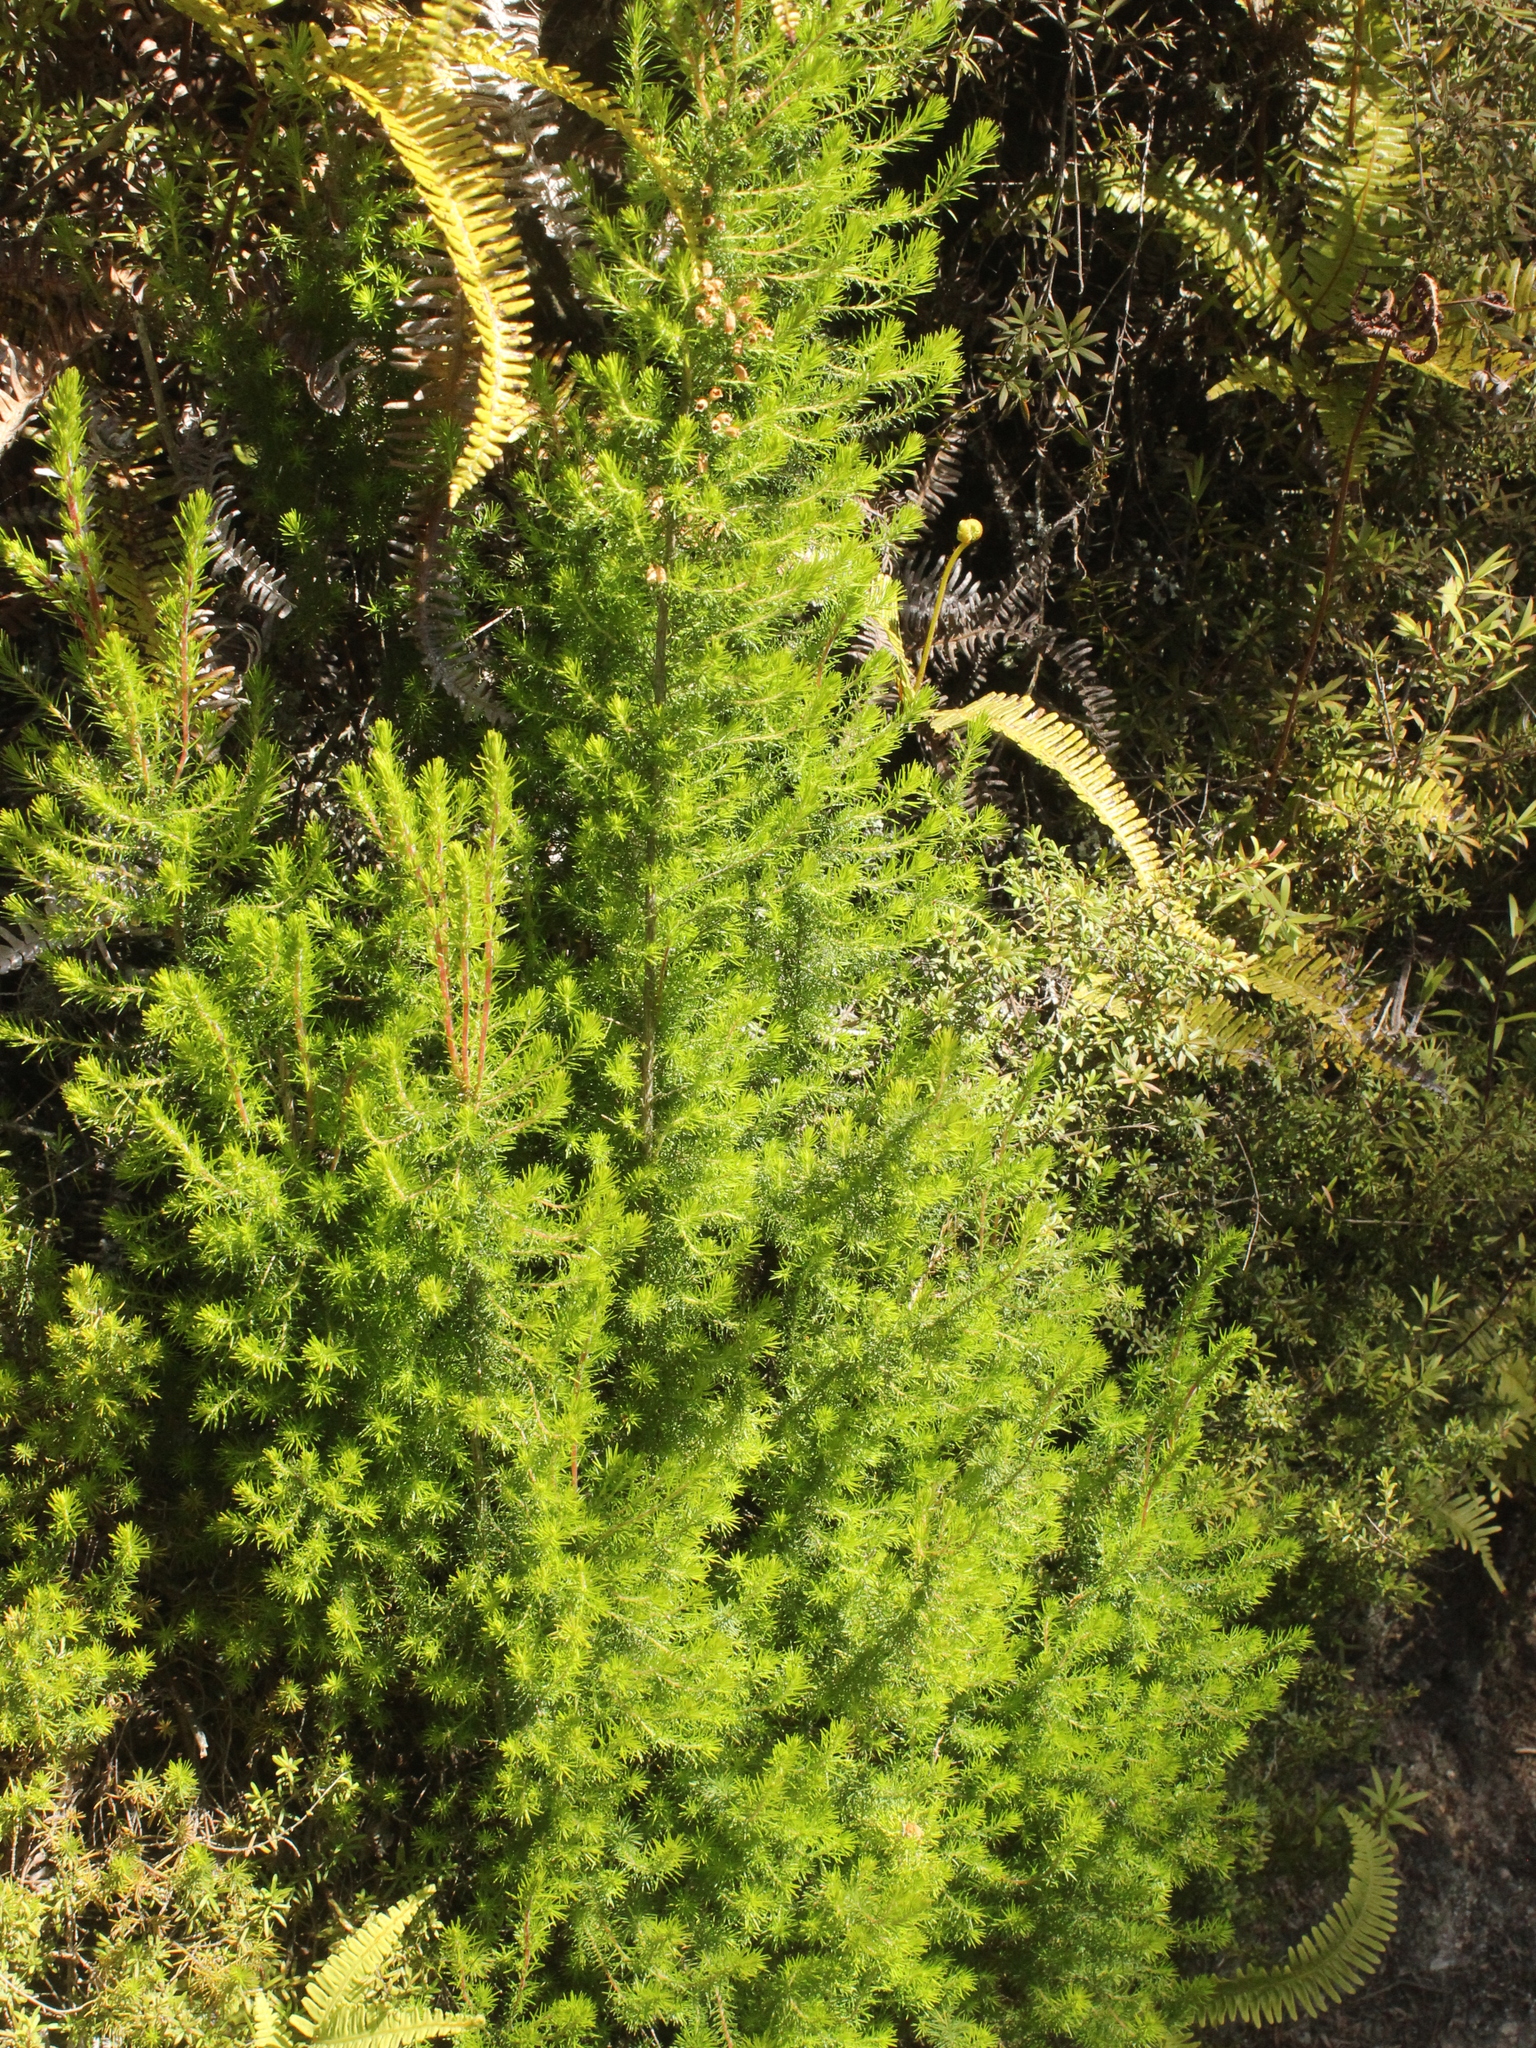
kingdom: Plantae
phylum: Tracheophyta
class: Magnoliopsida
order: Ericales
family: Ericaceae
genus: Erica
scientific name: Erica lusitanica
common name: Spanish heath
